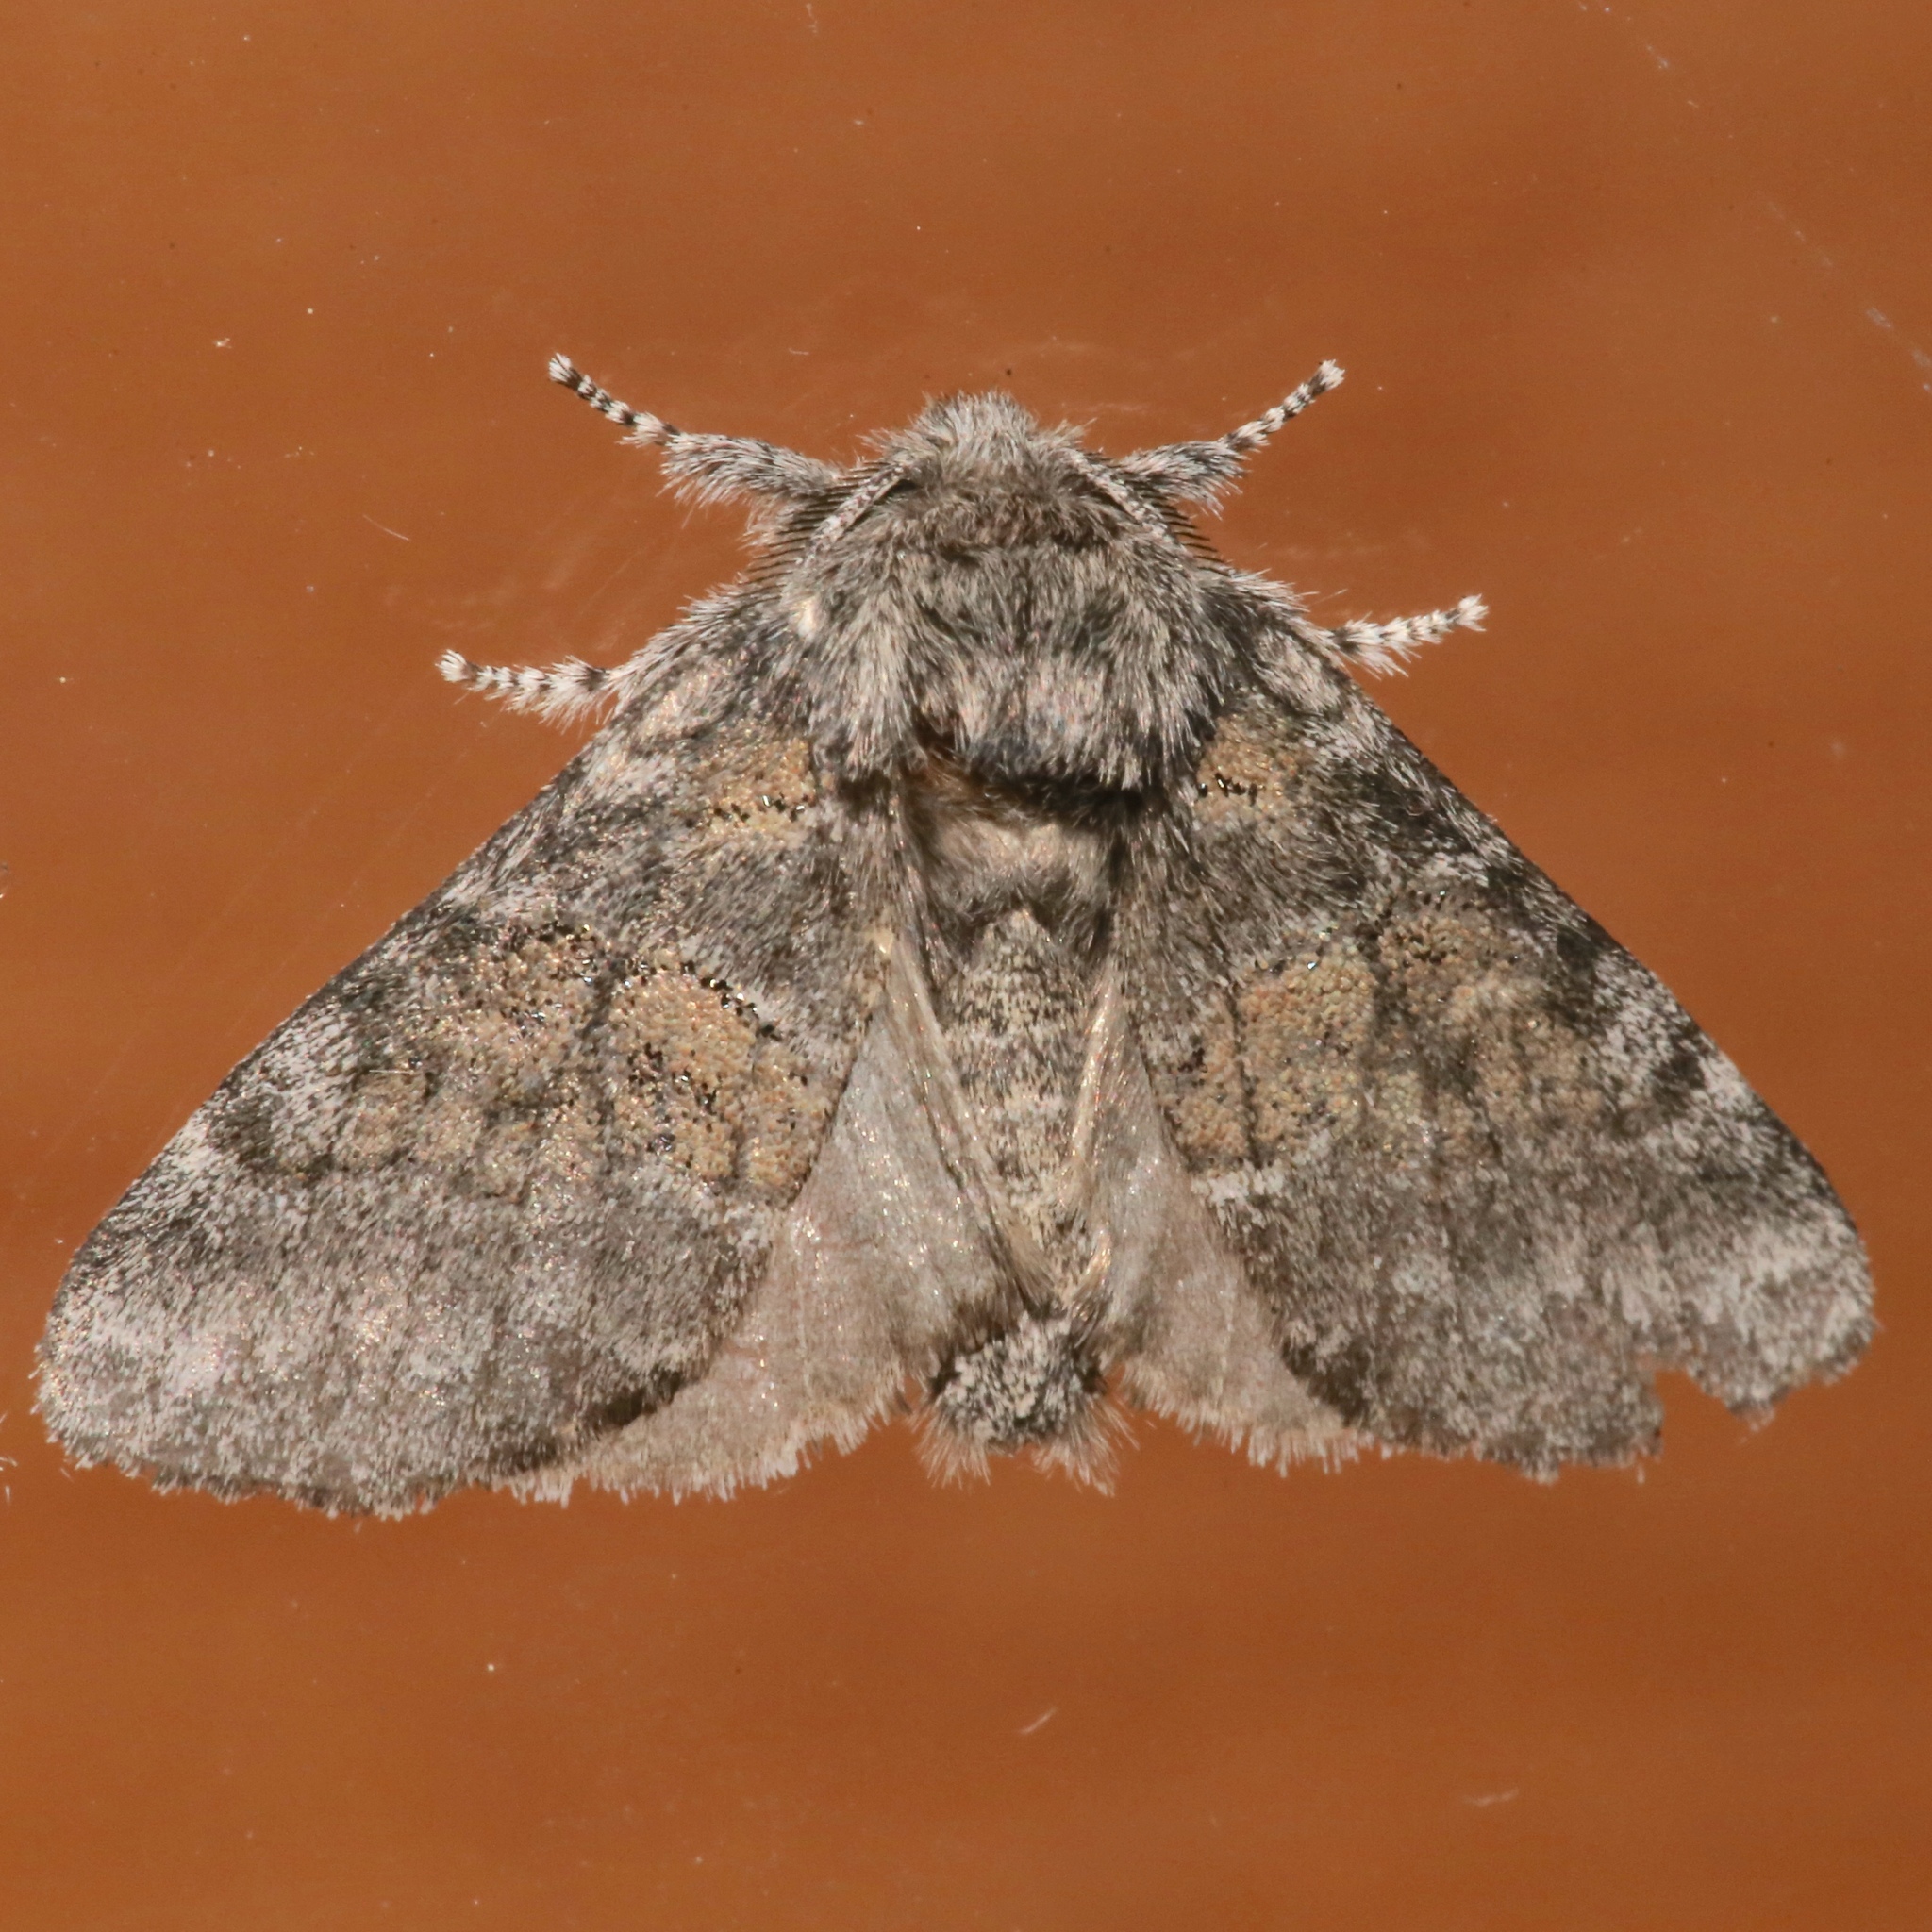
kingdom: Animalia
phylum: Arthropoda
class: Insecta
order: Lepidoptera
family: Notodontidae
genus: Gluphisia
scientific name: Gluphisia septentrionis
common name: Common gluphisia
